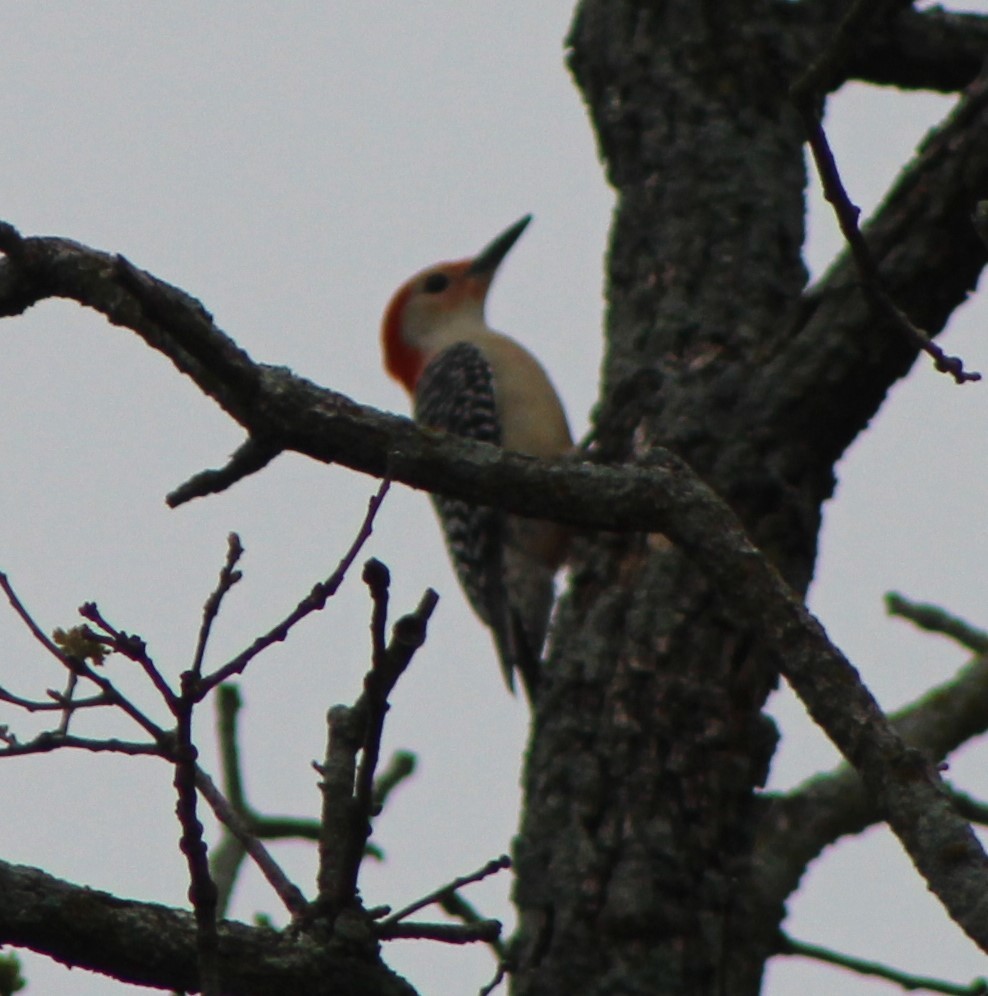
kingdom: Animalia
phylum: Chordata
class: Aves
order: Piciformes
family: Picidae
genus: Melanerpes
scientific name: Melanerpes carolinus
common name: Red-bellied woodpecker
